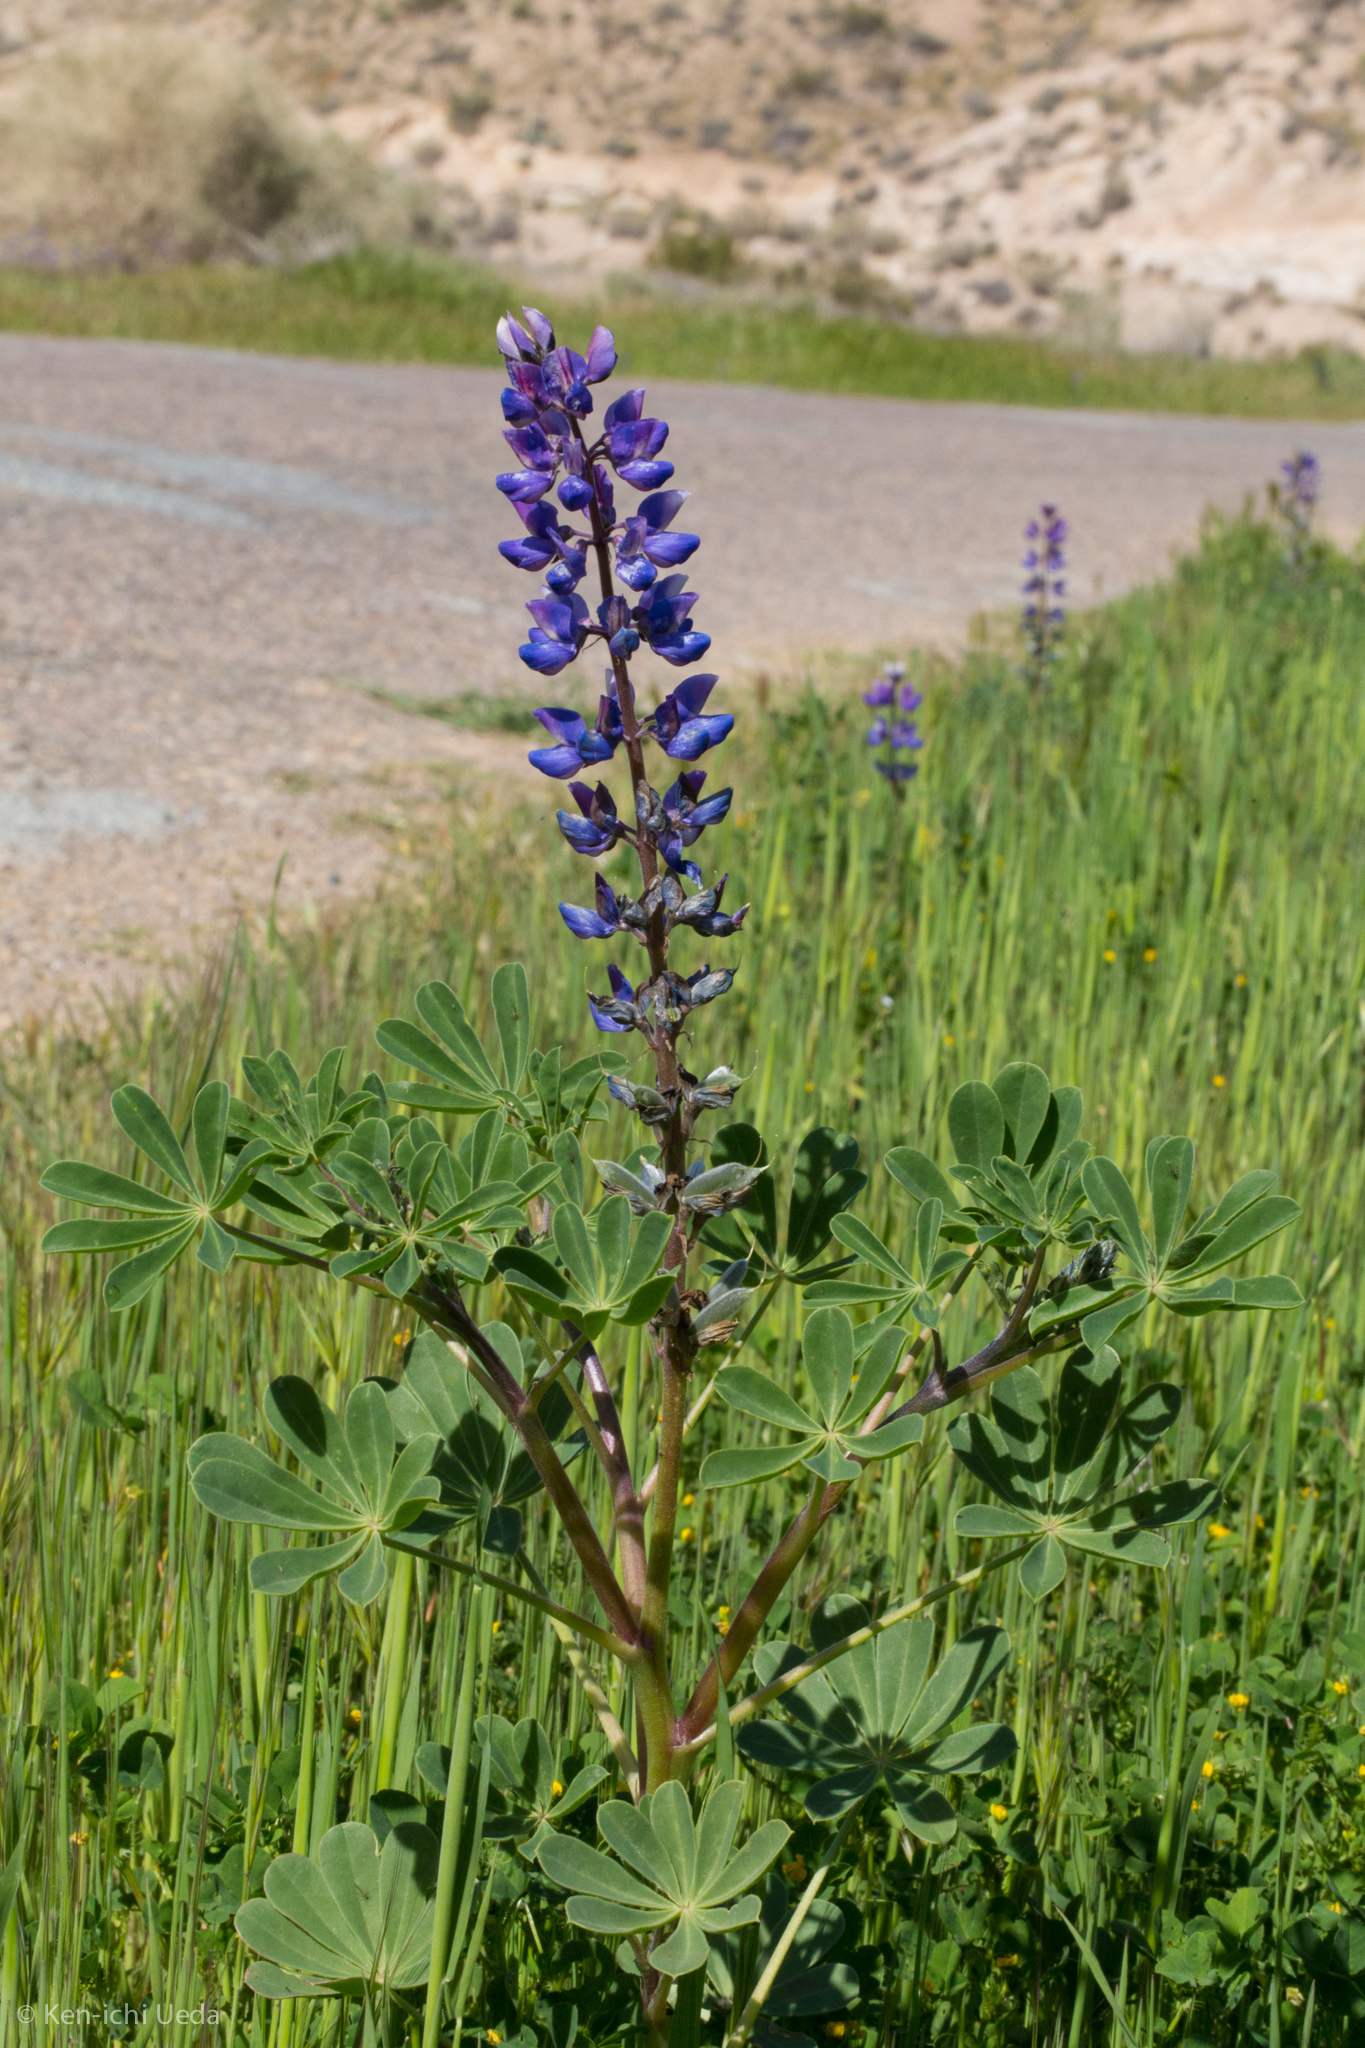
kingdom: Plantae
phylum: Tracheophyta
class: Magnoliopsida
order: Fabales
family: Fabaceae
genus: Lupinus
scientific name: Lupinus succulentus
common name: Arroyo lupine
